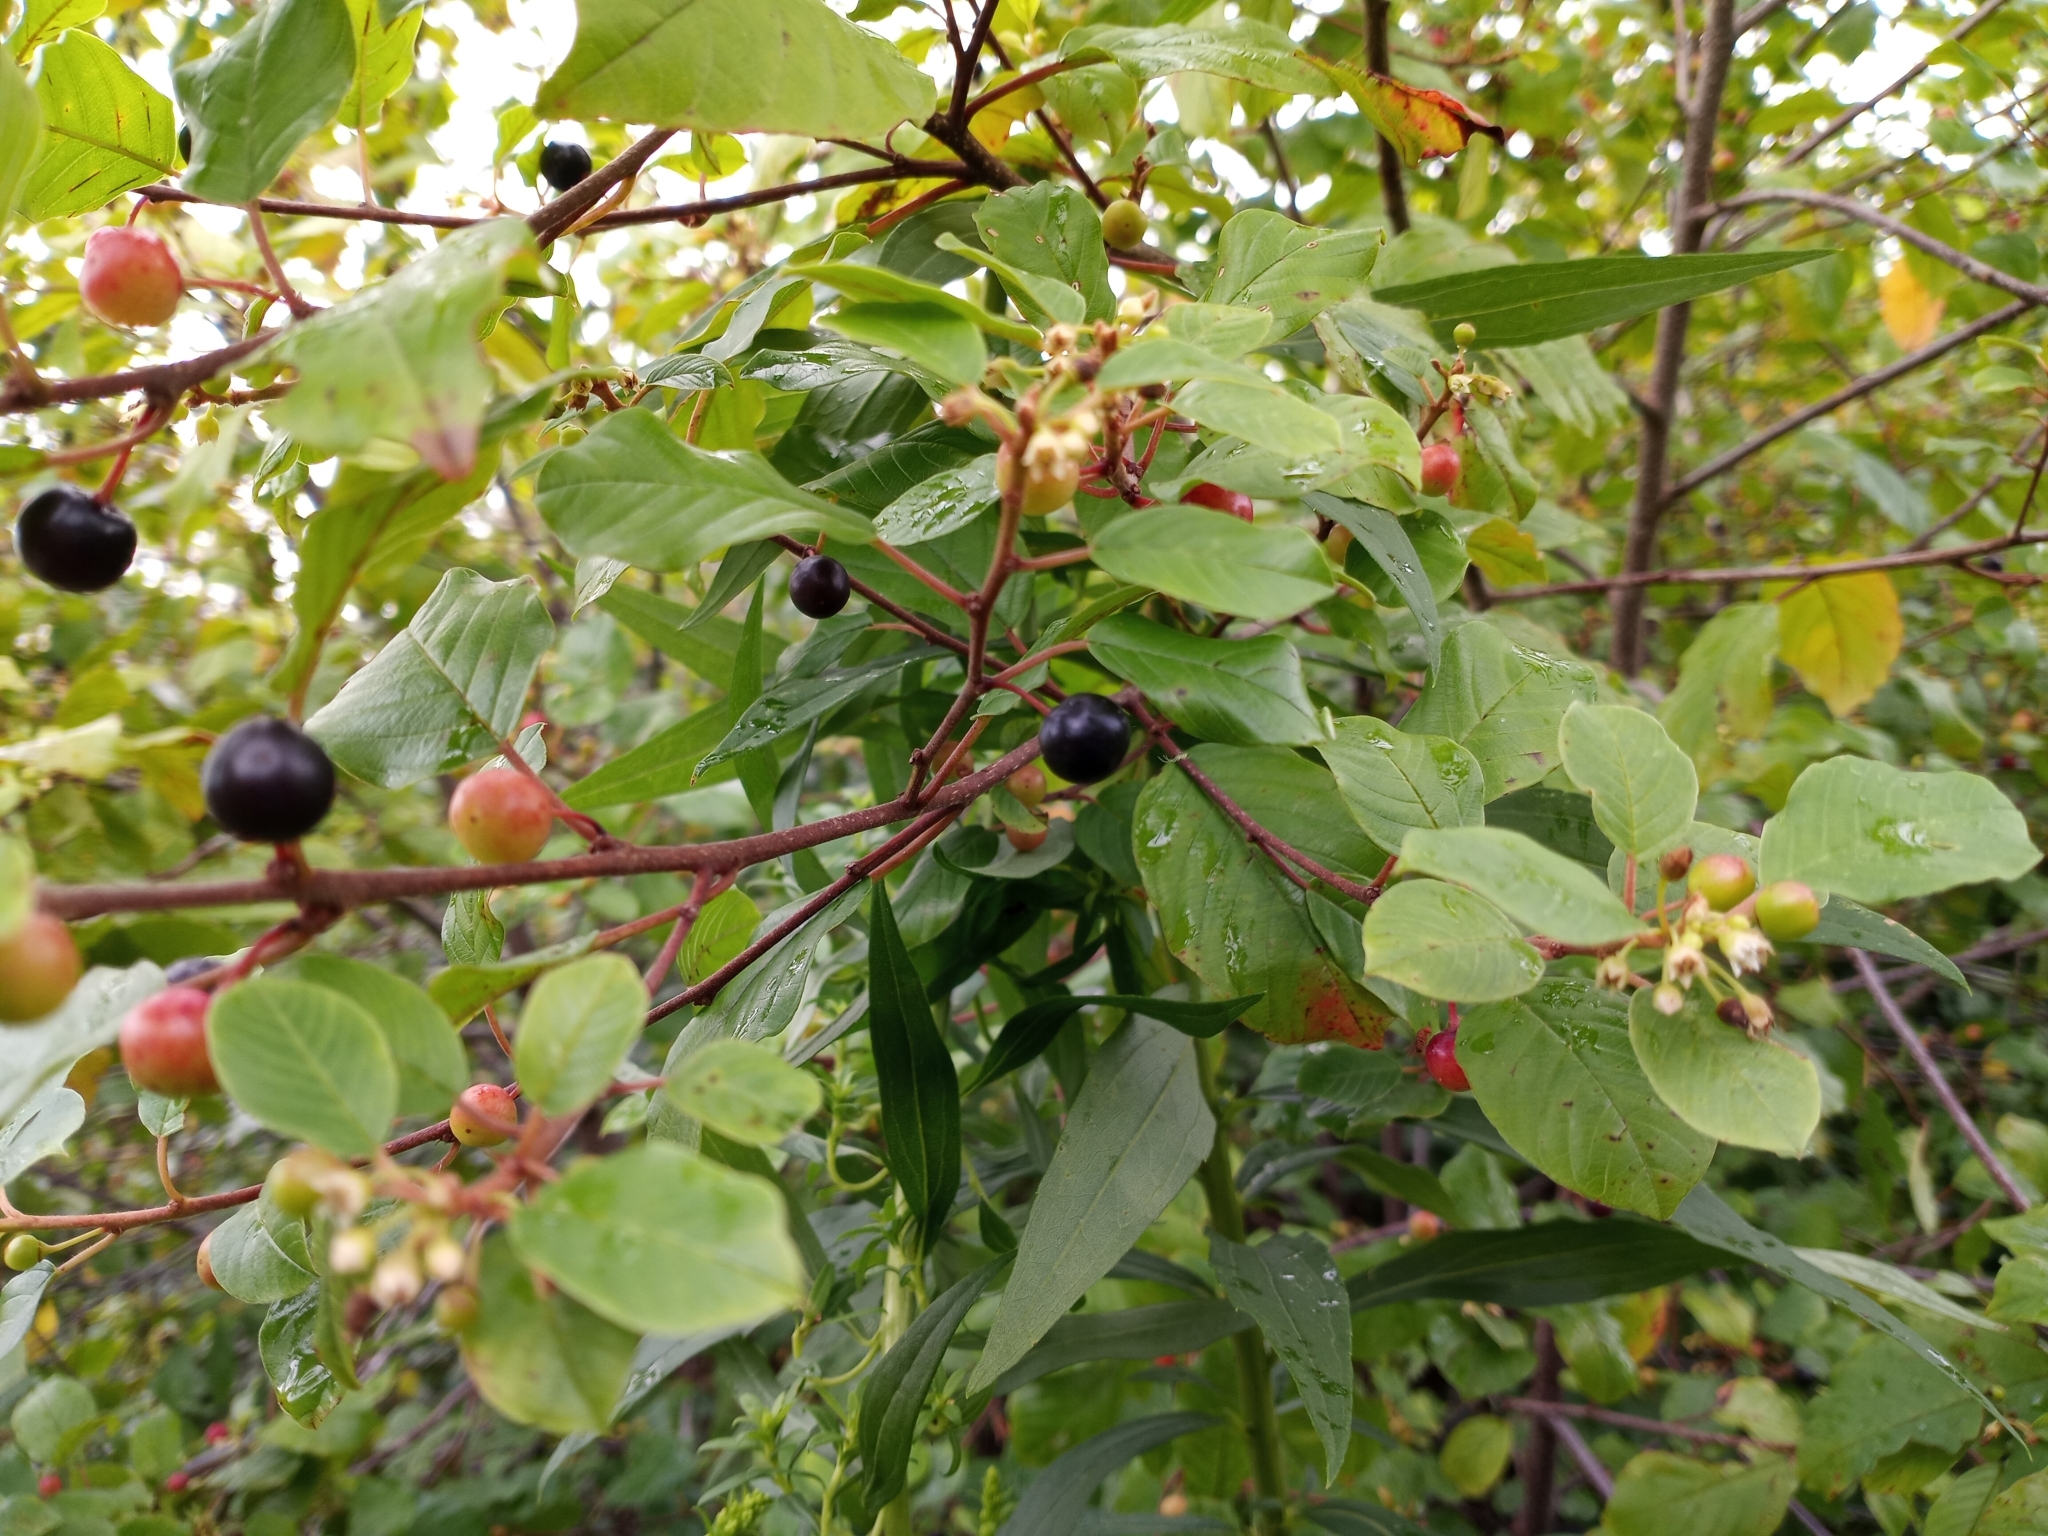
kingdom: Plantae
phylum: Tracheophyta
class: Magnoliopsida
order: Rosales
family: Rhamnaceae
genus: Frangula
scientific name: Frangula alnus
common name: Alder buckthorn
